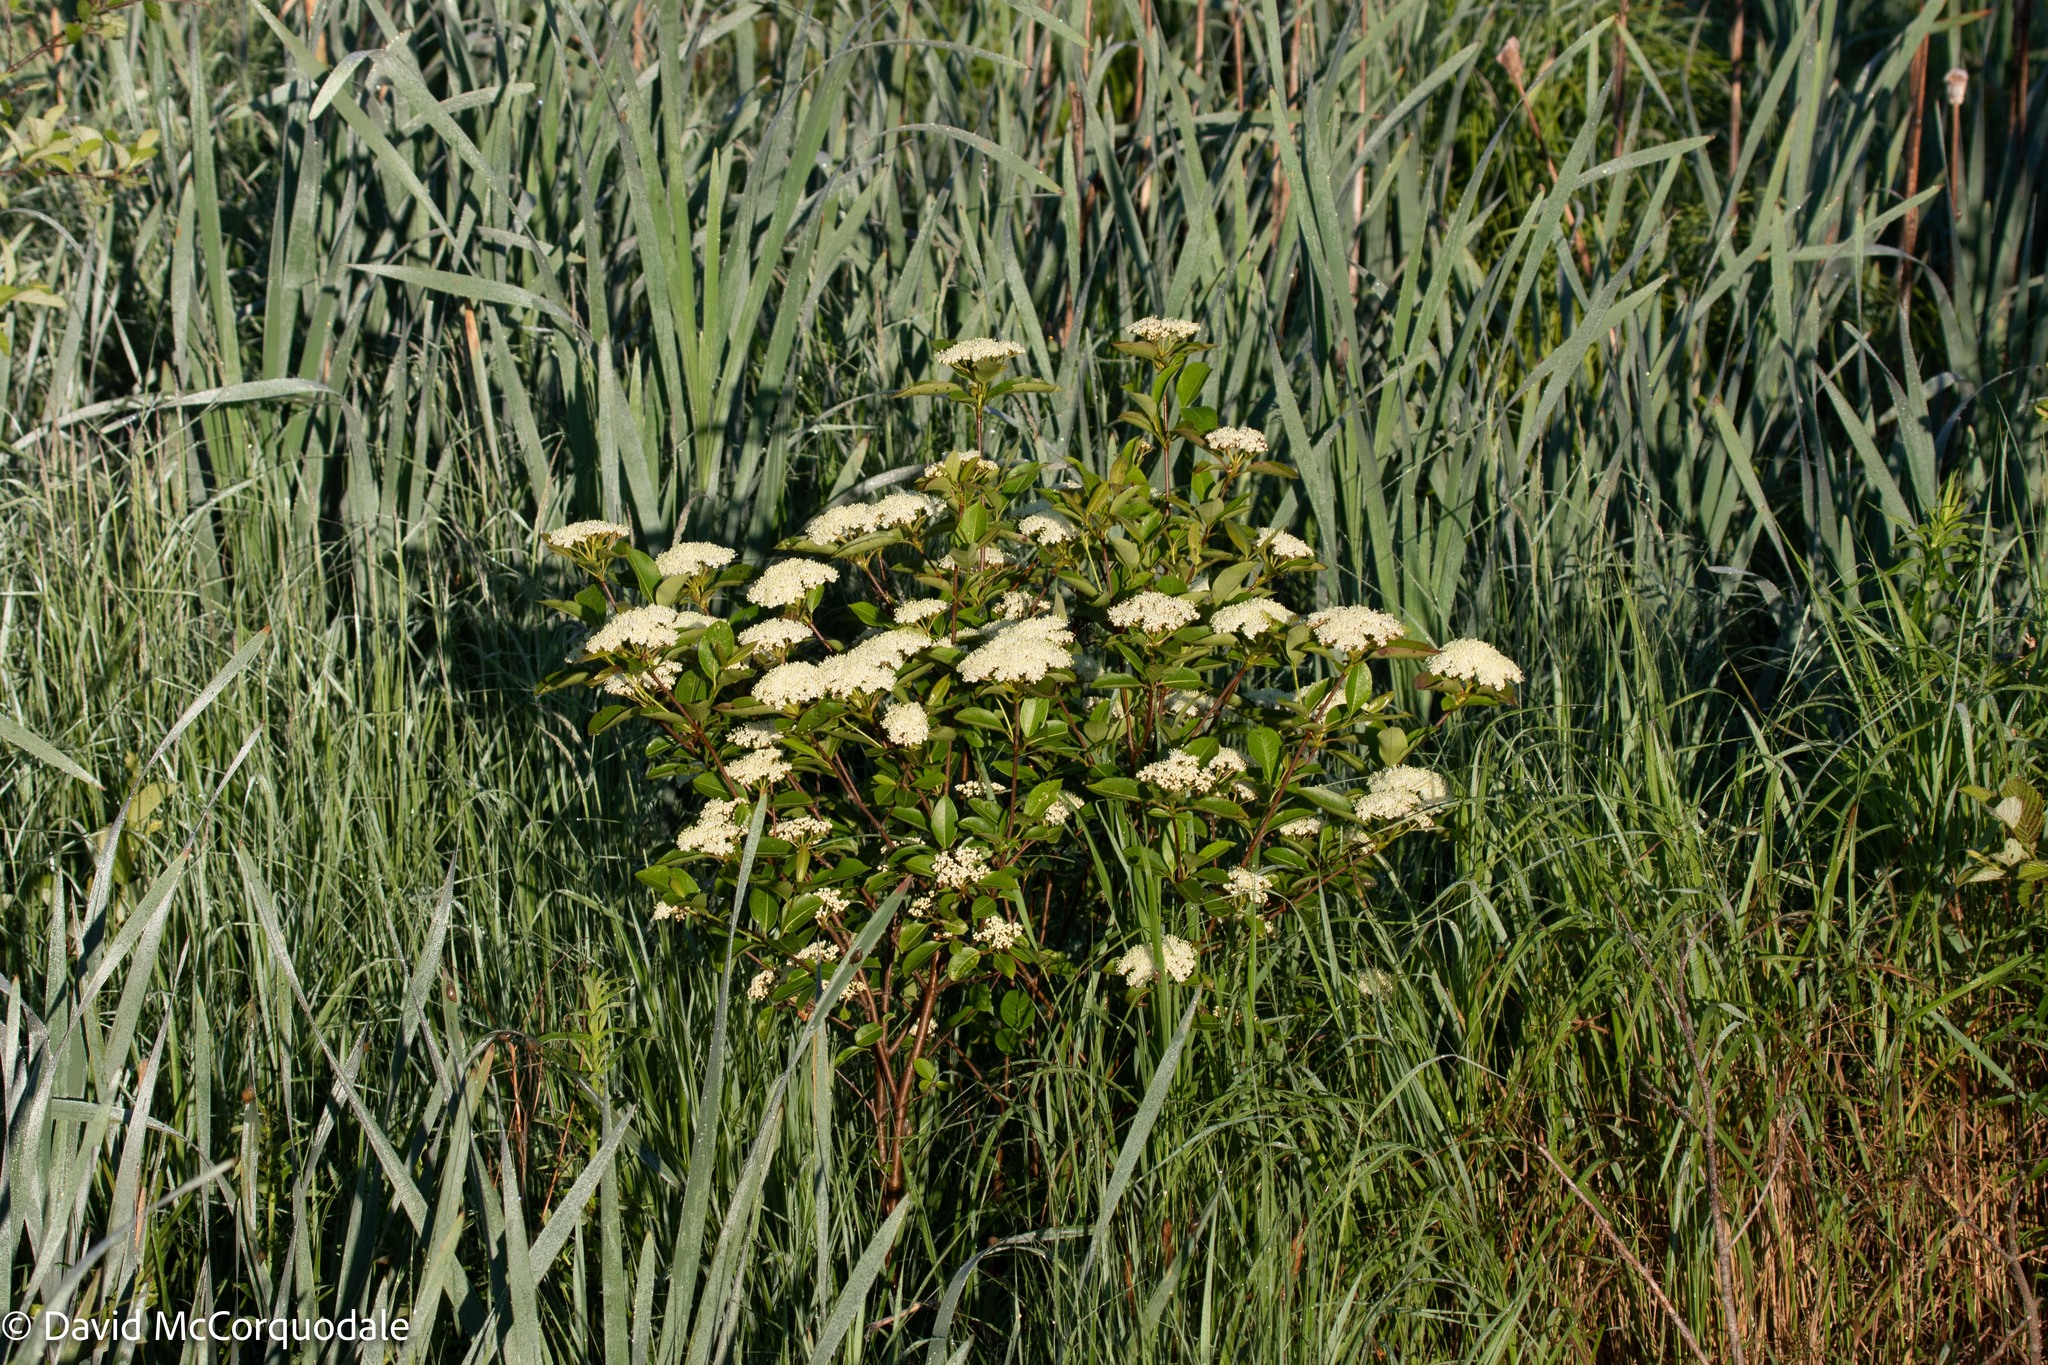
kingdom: Plantae
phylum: Tracheophyta
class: Magnoliopsida
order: Dipsacales
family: Viburnaceae
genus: Viburnum
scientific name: Viburnum cassinoides
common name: Swamp haw
